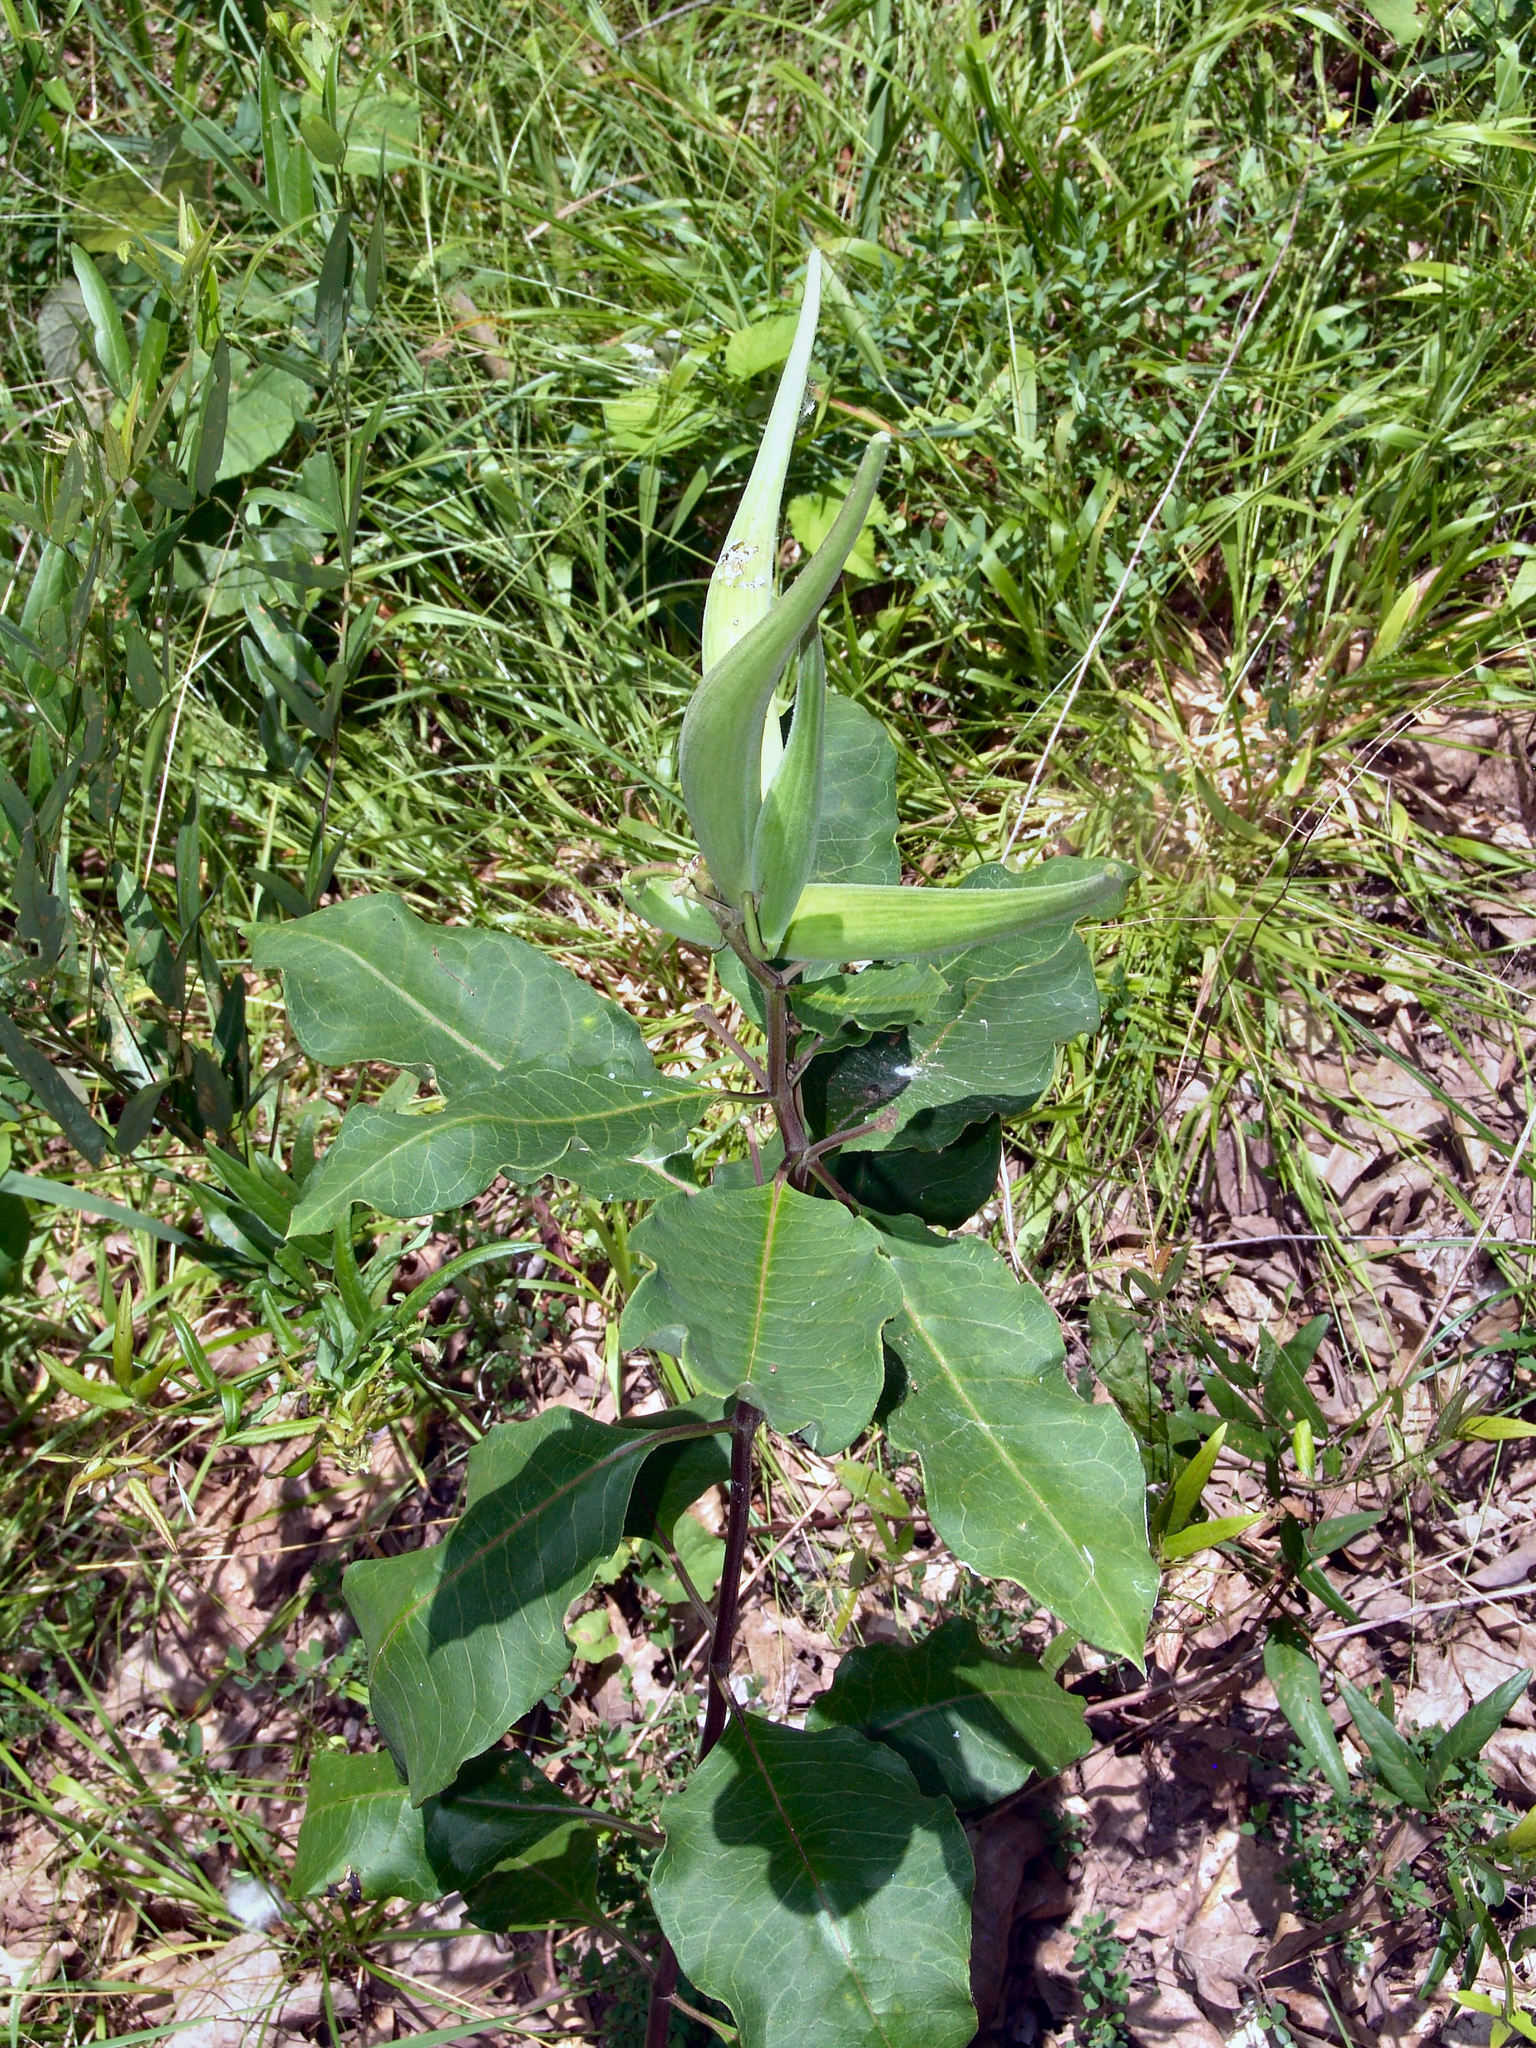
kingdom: Plantae
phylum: Tracheophyta
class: Magnoliopsida
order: Gentianales
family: Apocynaceae
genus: Asclepias
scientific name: Asclepias variegata
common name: Variegated milkweed
